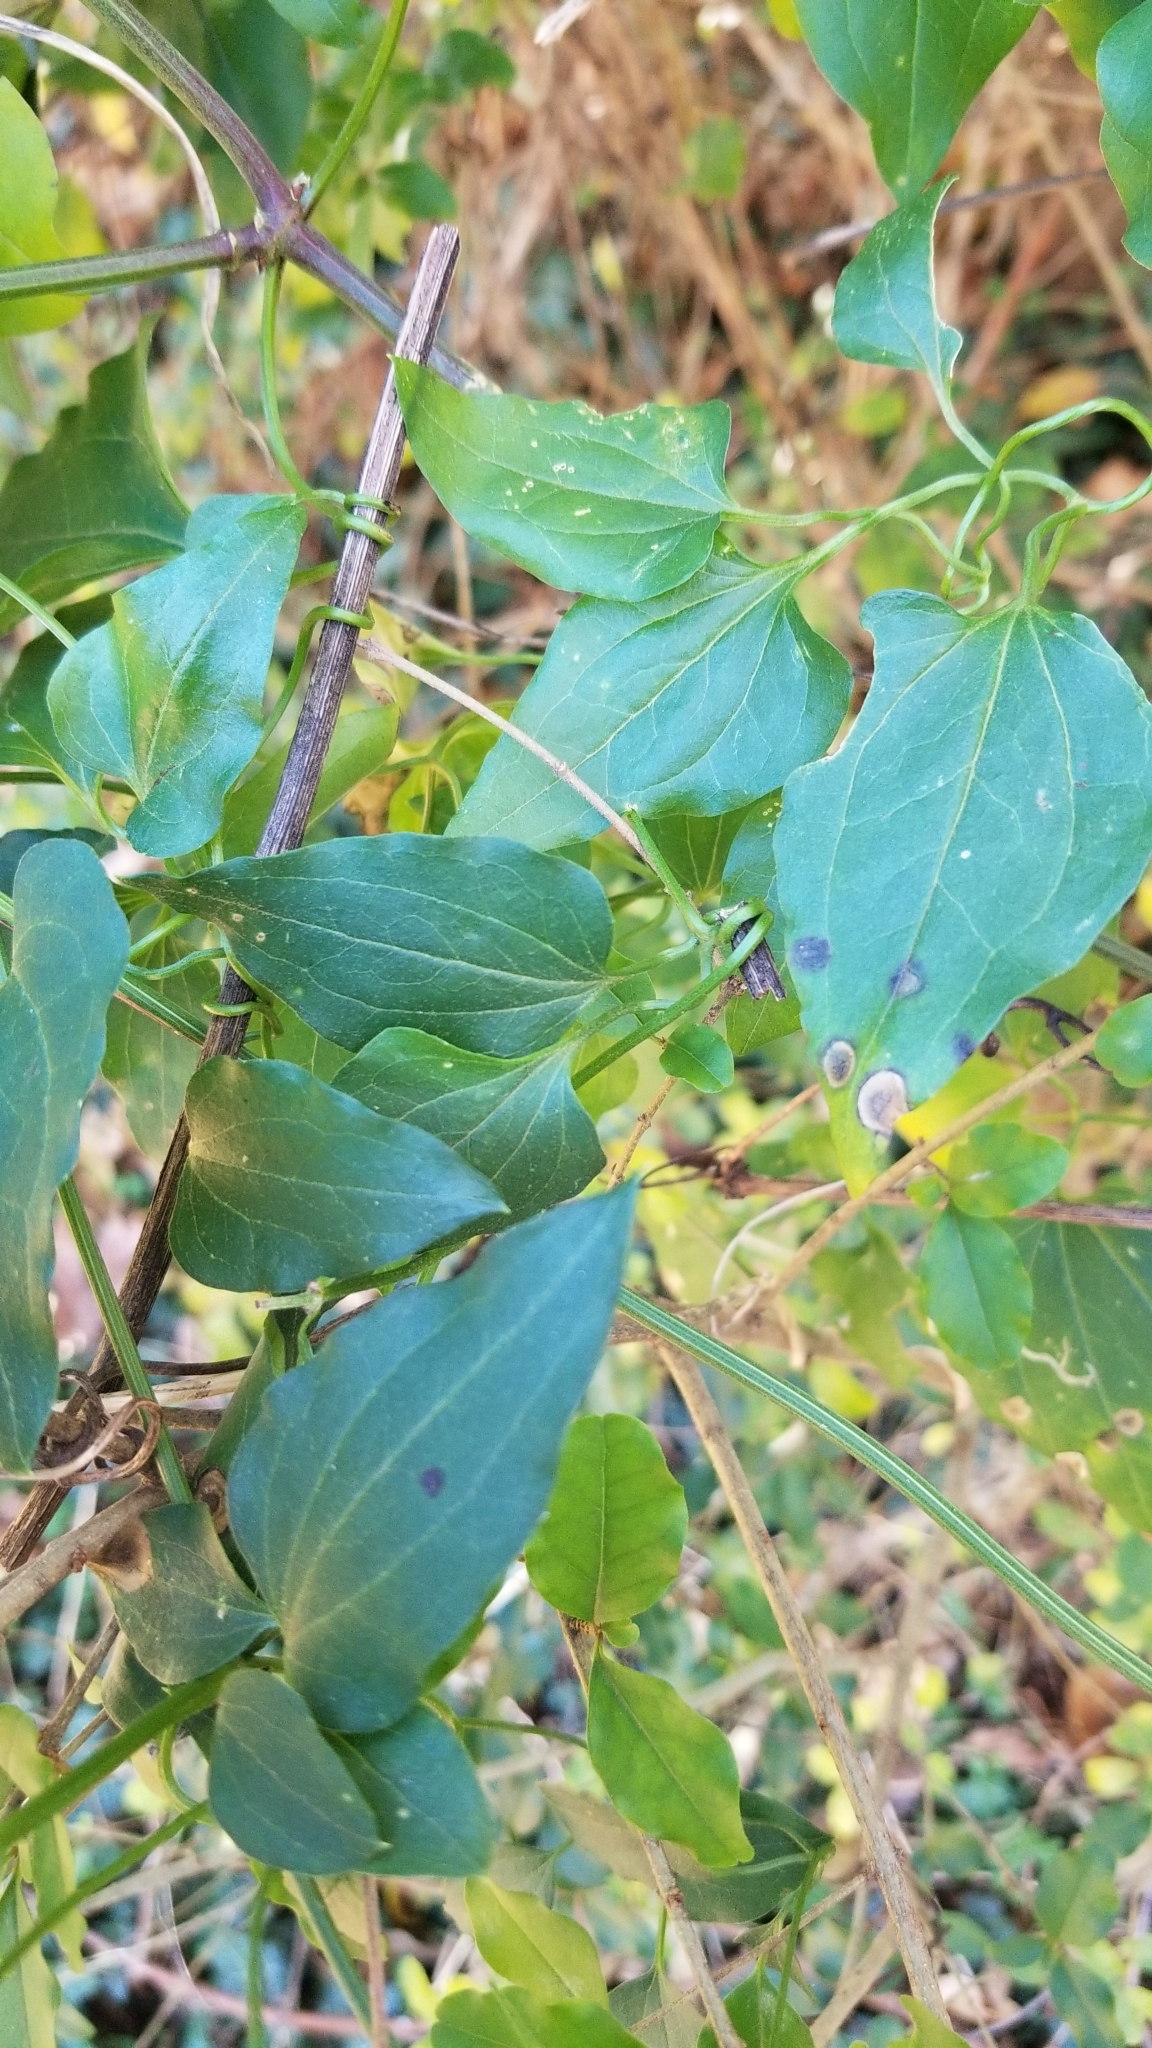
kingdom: Plantae
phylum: Tracheophyta
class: Magnoliopsida
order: Ranunculales
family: Ranunculaceae
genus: Clematis
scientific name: Clematis terniflora
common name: Sweet autumn clematis
